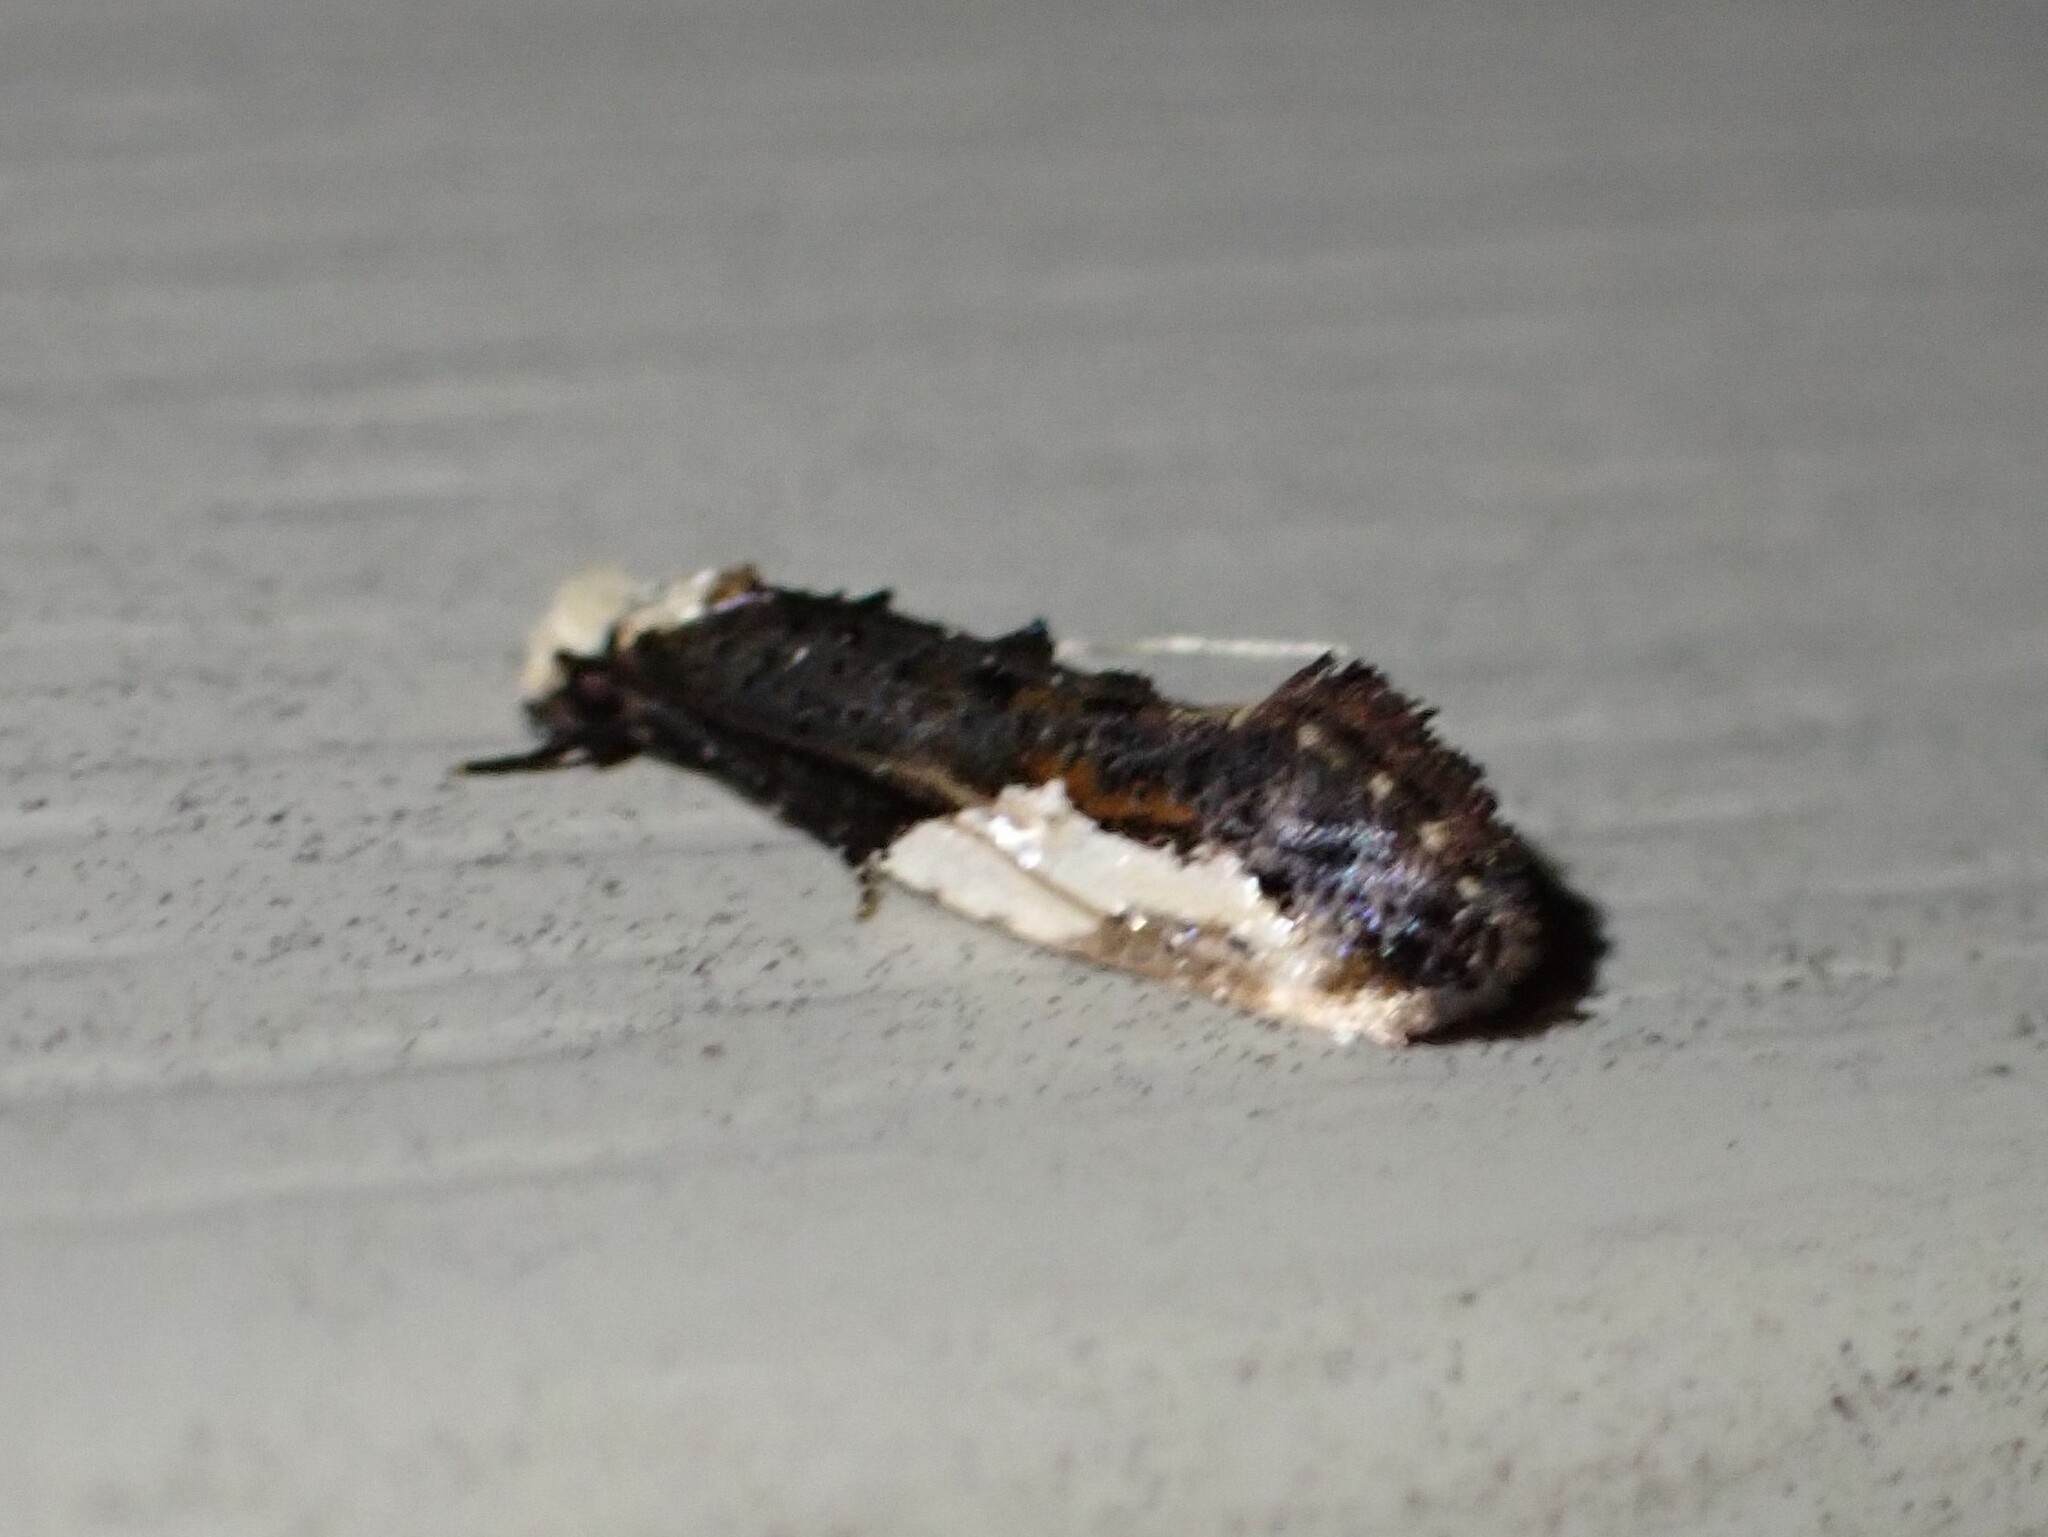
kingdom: Animalia
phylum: Arthropoda
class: Insecta
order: Lepidoptera
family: Tineidae
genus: Monopis
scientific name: Monopis longella
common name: Pavlovski's monopis moth
